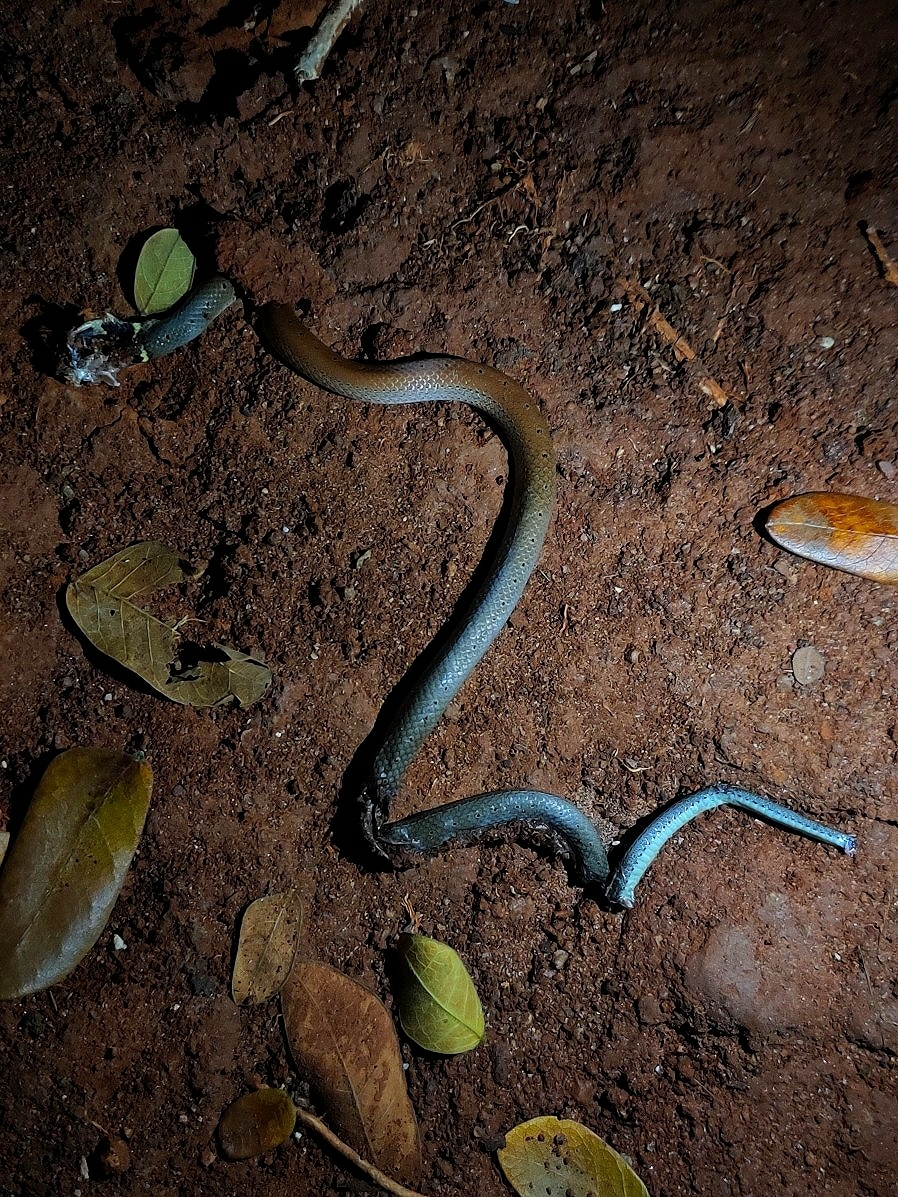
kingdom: Animalia
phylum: Chordata
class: Squamata
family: Colubridae
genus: Sibynophis
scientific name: Sibynophis subpunctatus
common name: Black-headed snake
